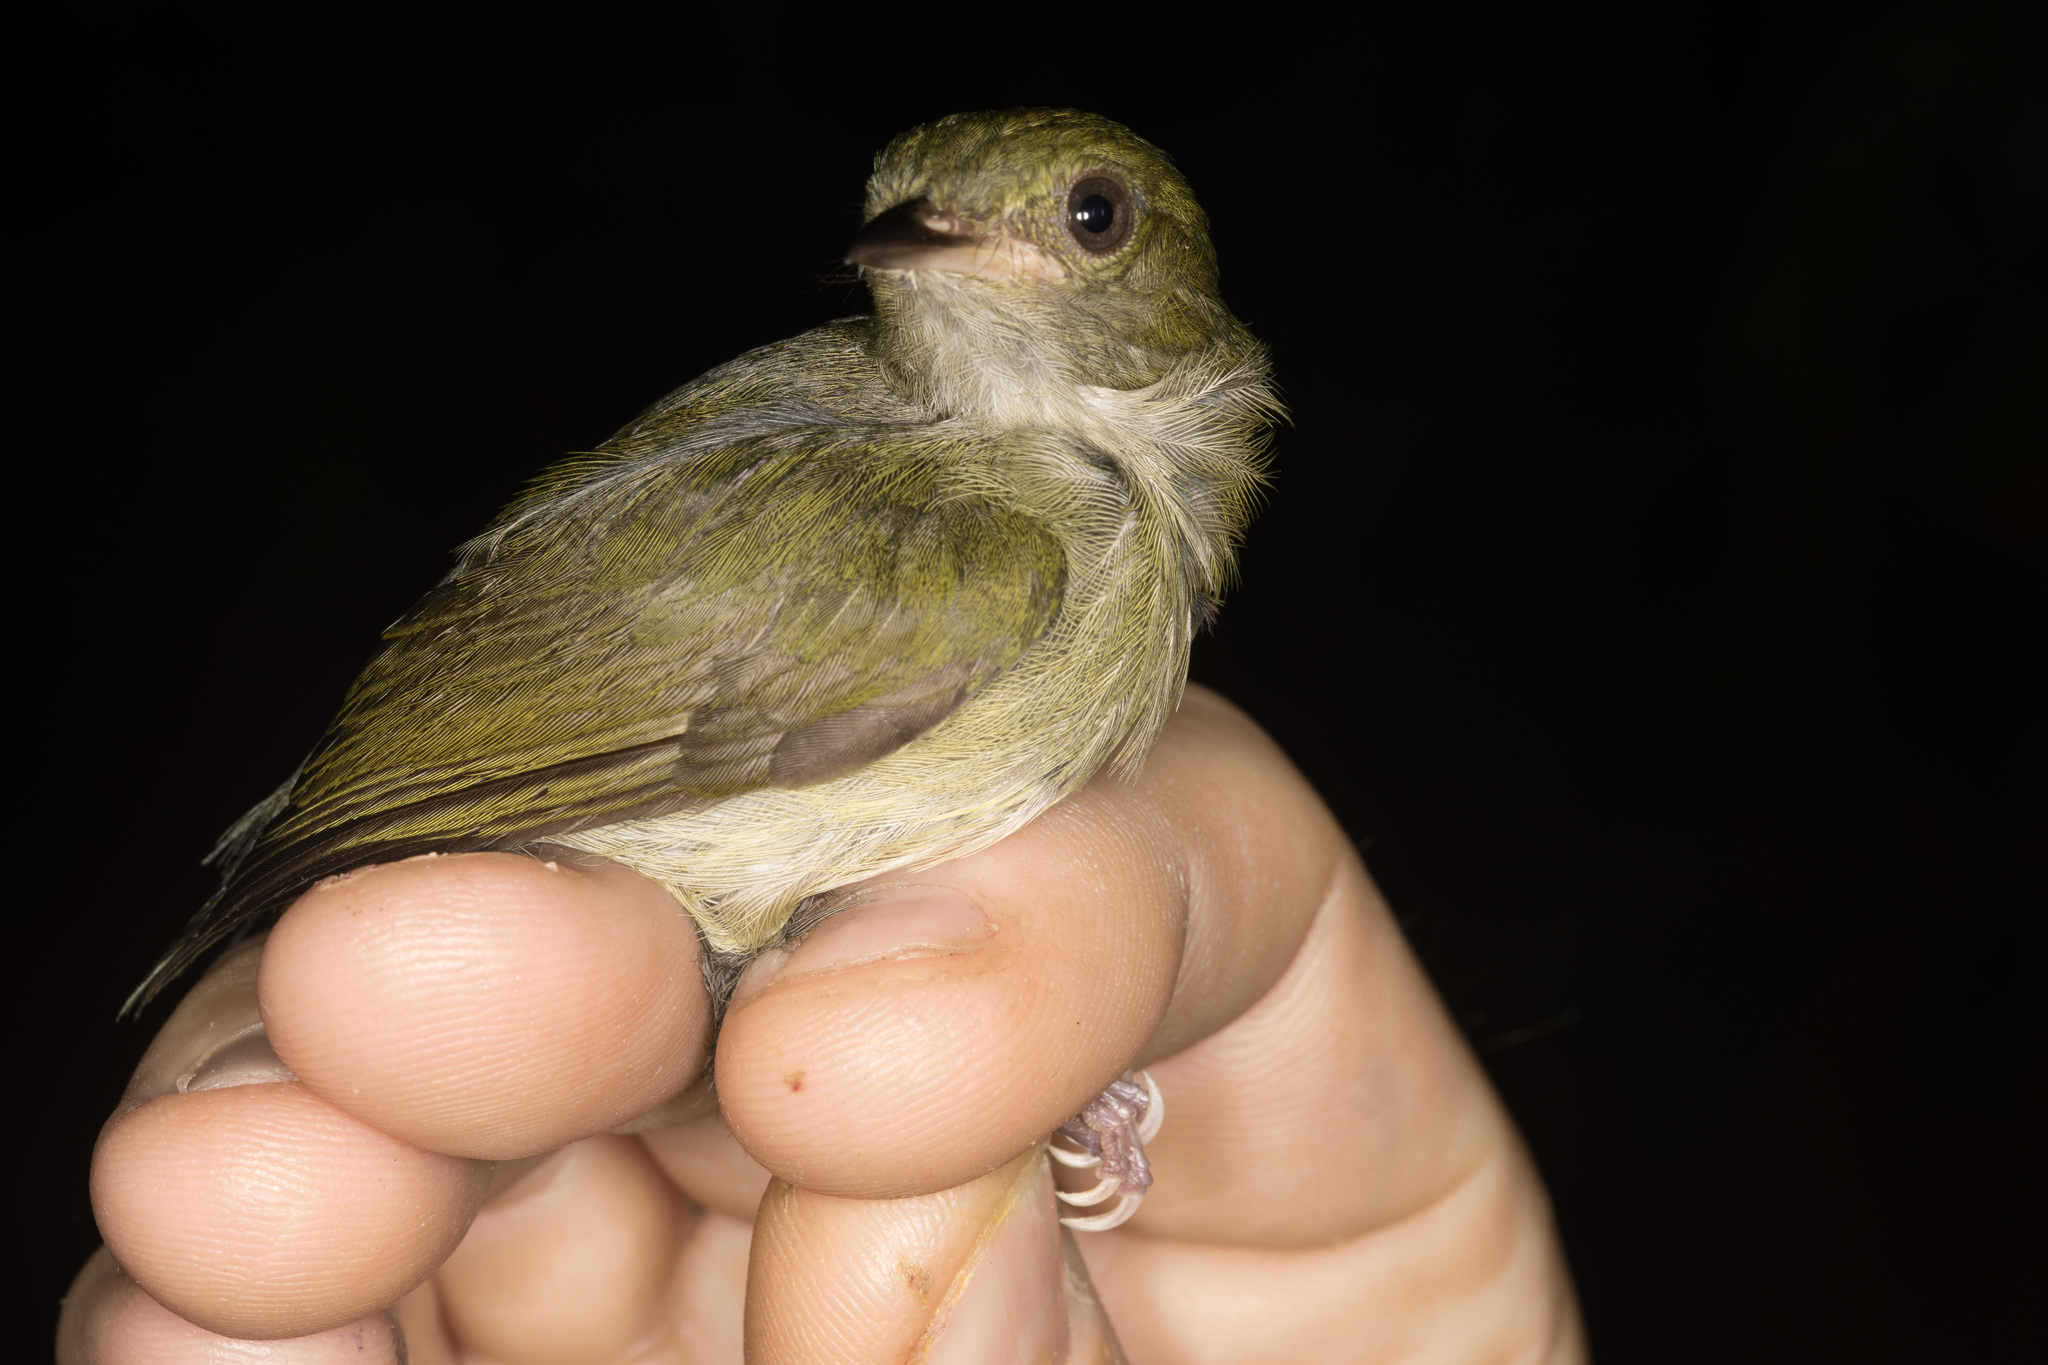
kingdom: Animalia
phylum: Chordata
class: Aves
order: Passeriformes
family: Pipridae
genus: Machaeropterus
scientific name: Machaeropterus pyrocephalus
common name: Fiery-capped manakin
